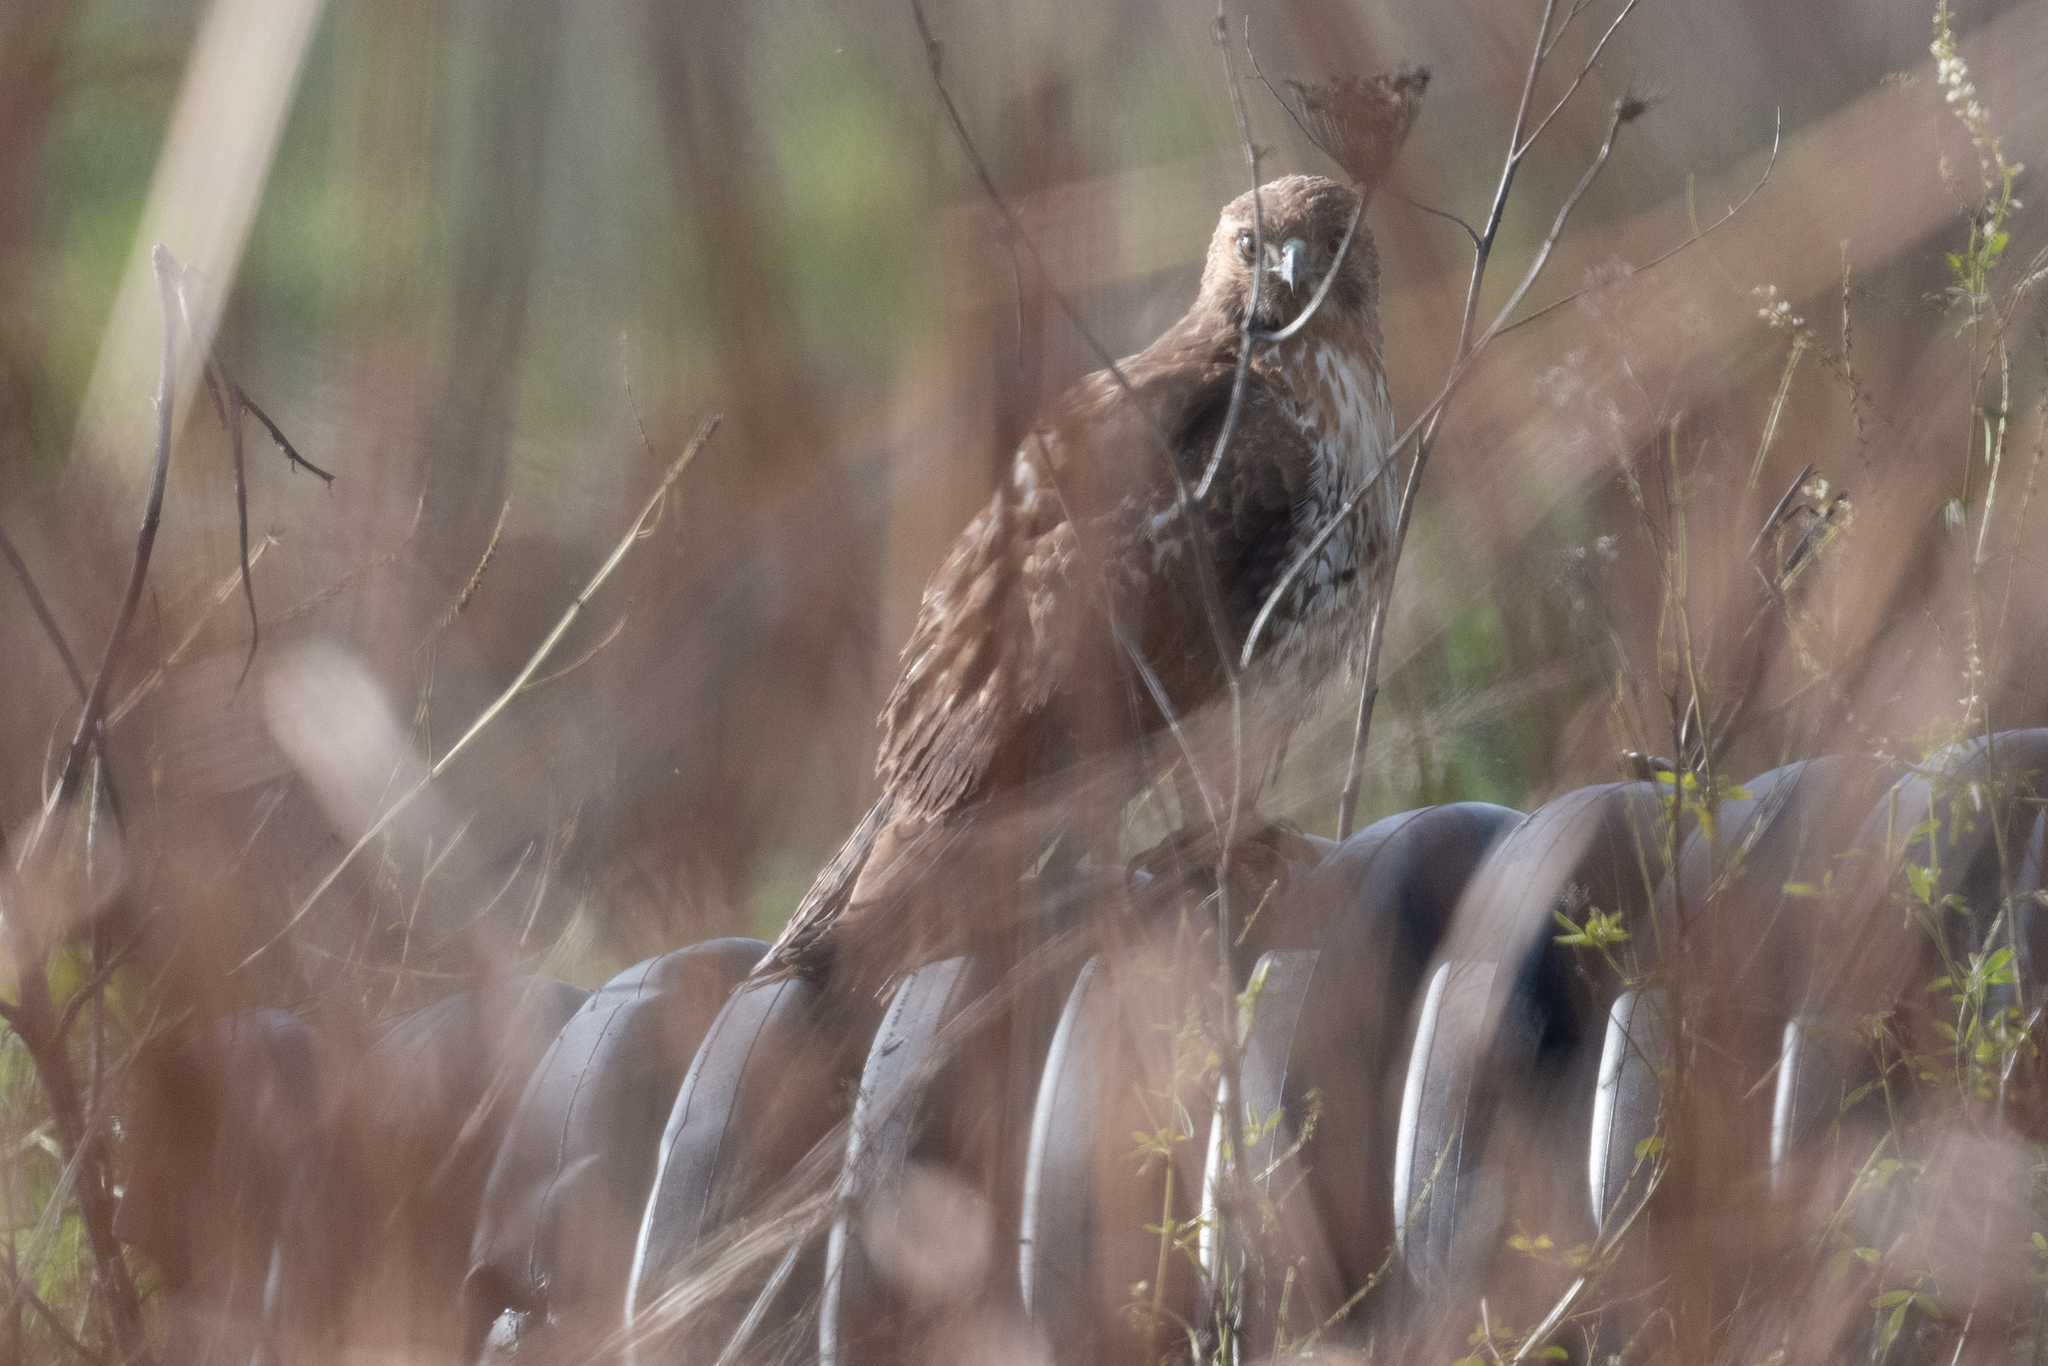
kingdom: Animalia
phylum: Chordata
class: Aves
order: Accipitriformes
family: Accipitridae
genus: Buteo
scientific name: Buteo jamaicensis
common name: Red-tailed hawk
